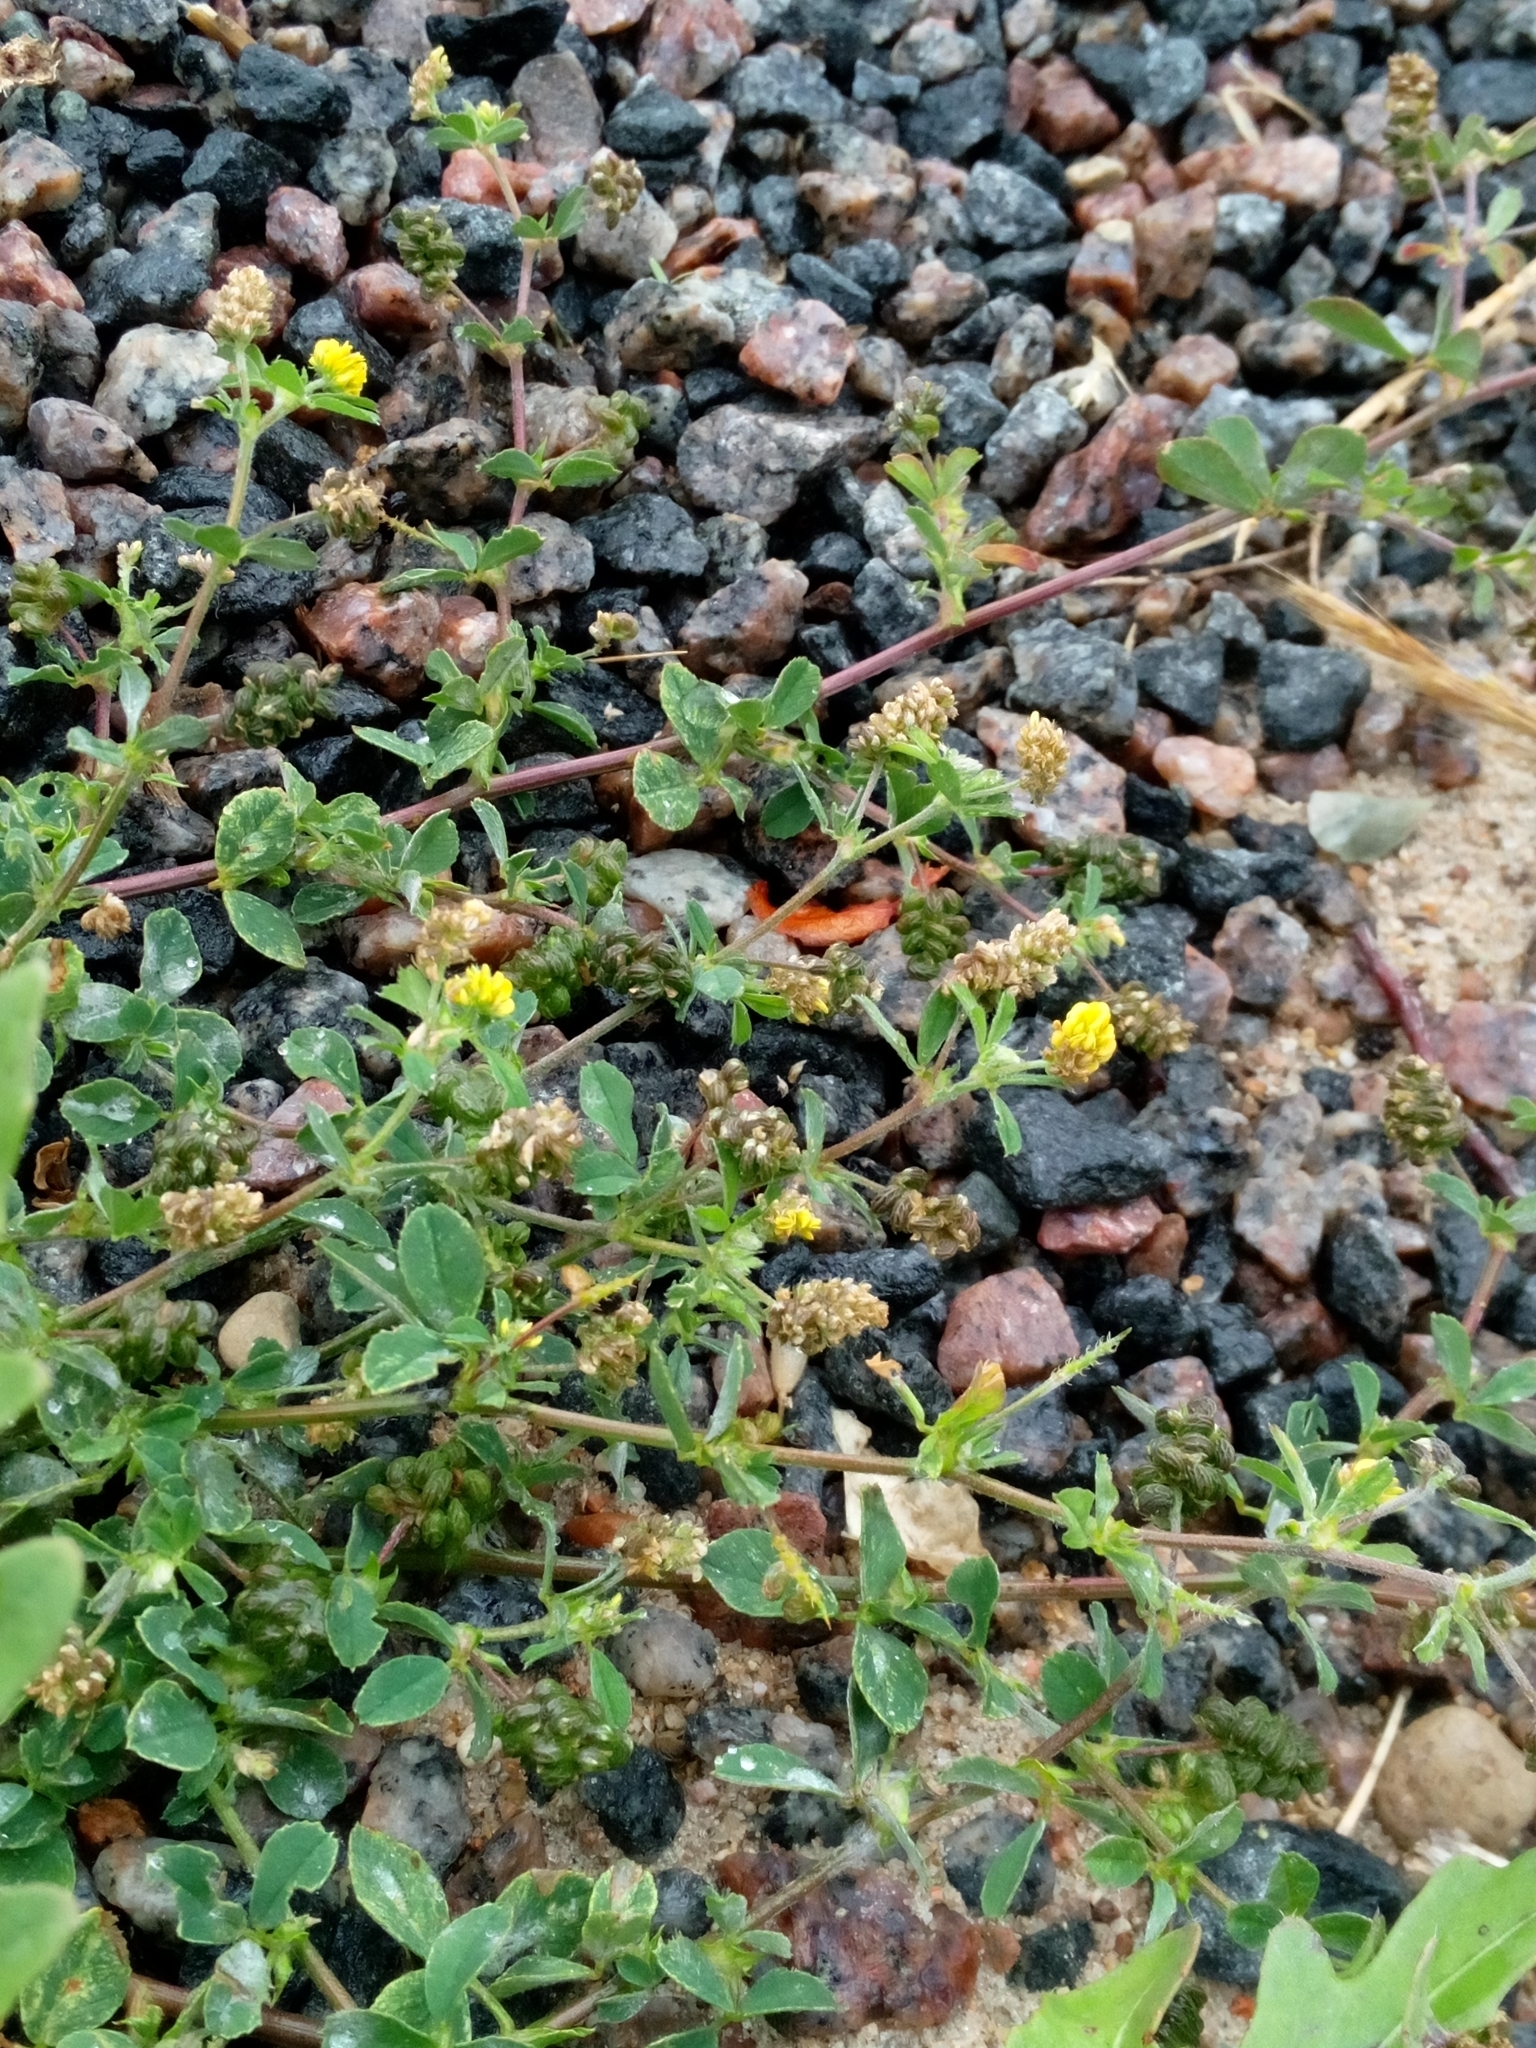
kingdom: Plantae
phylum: Tracheophyta
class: Magnoliopsida
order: Fabales
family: Fabaceae
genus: Medicago
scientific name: Medicago lupulina
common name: Black medick
